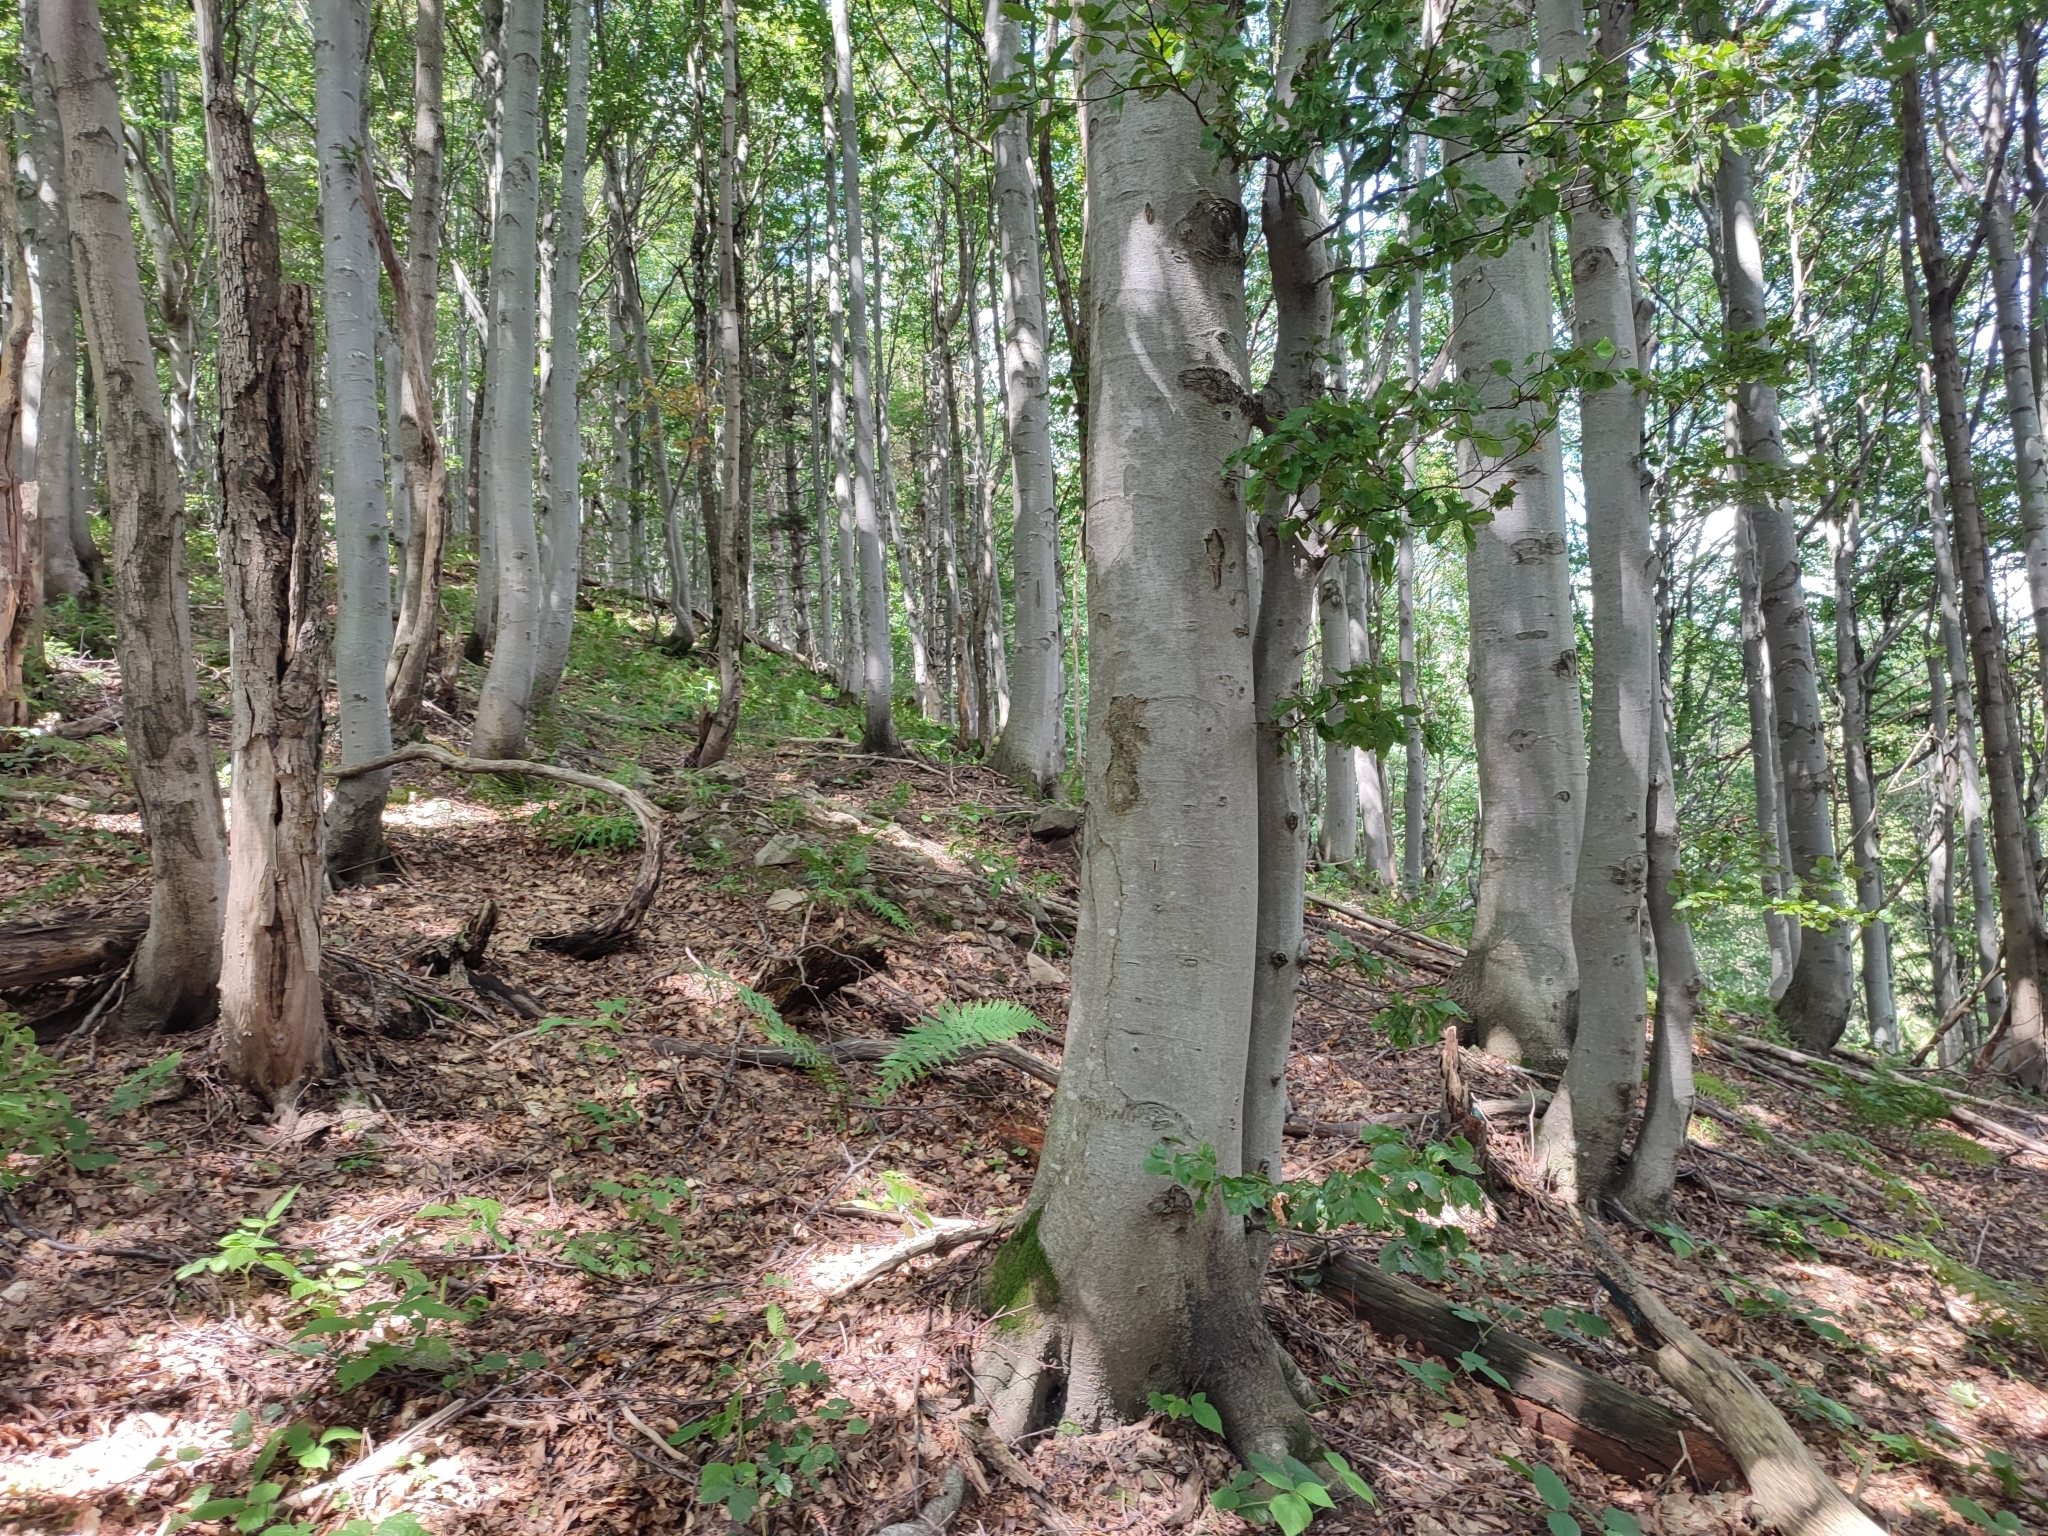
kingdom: Plantae
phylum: Tracheophyta
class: Magnoliopsida
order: Fagales
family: Fagaceae
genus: Fagus
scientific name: Fagus sylvatica
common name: Beech
